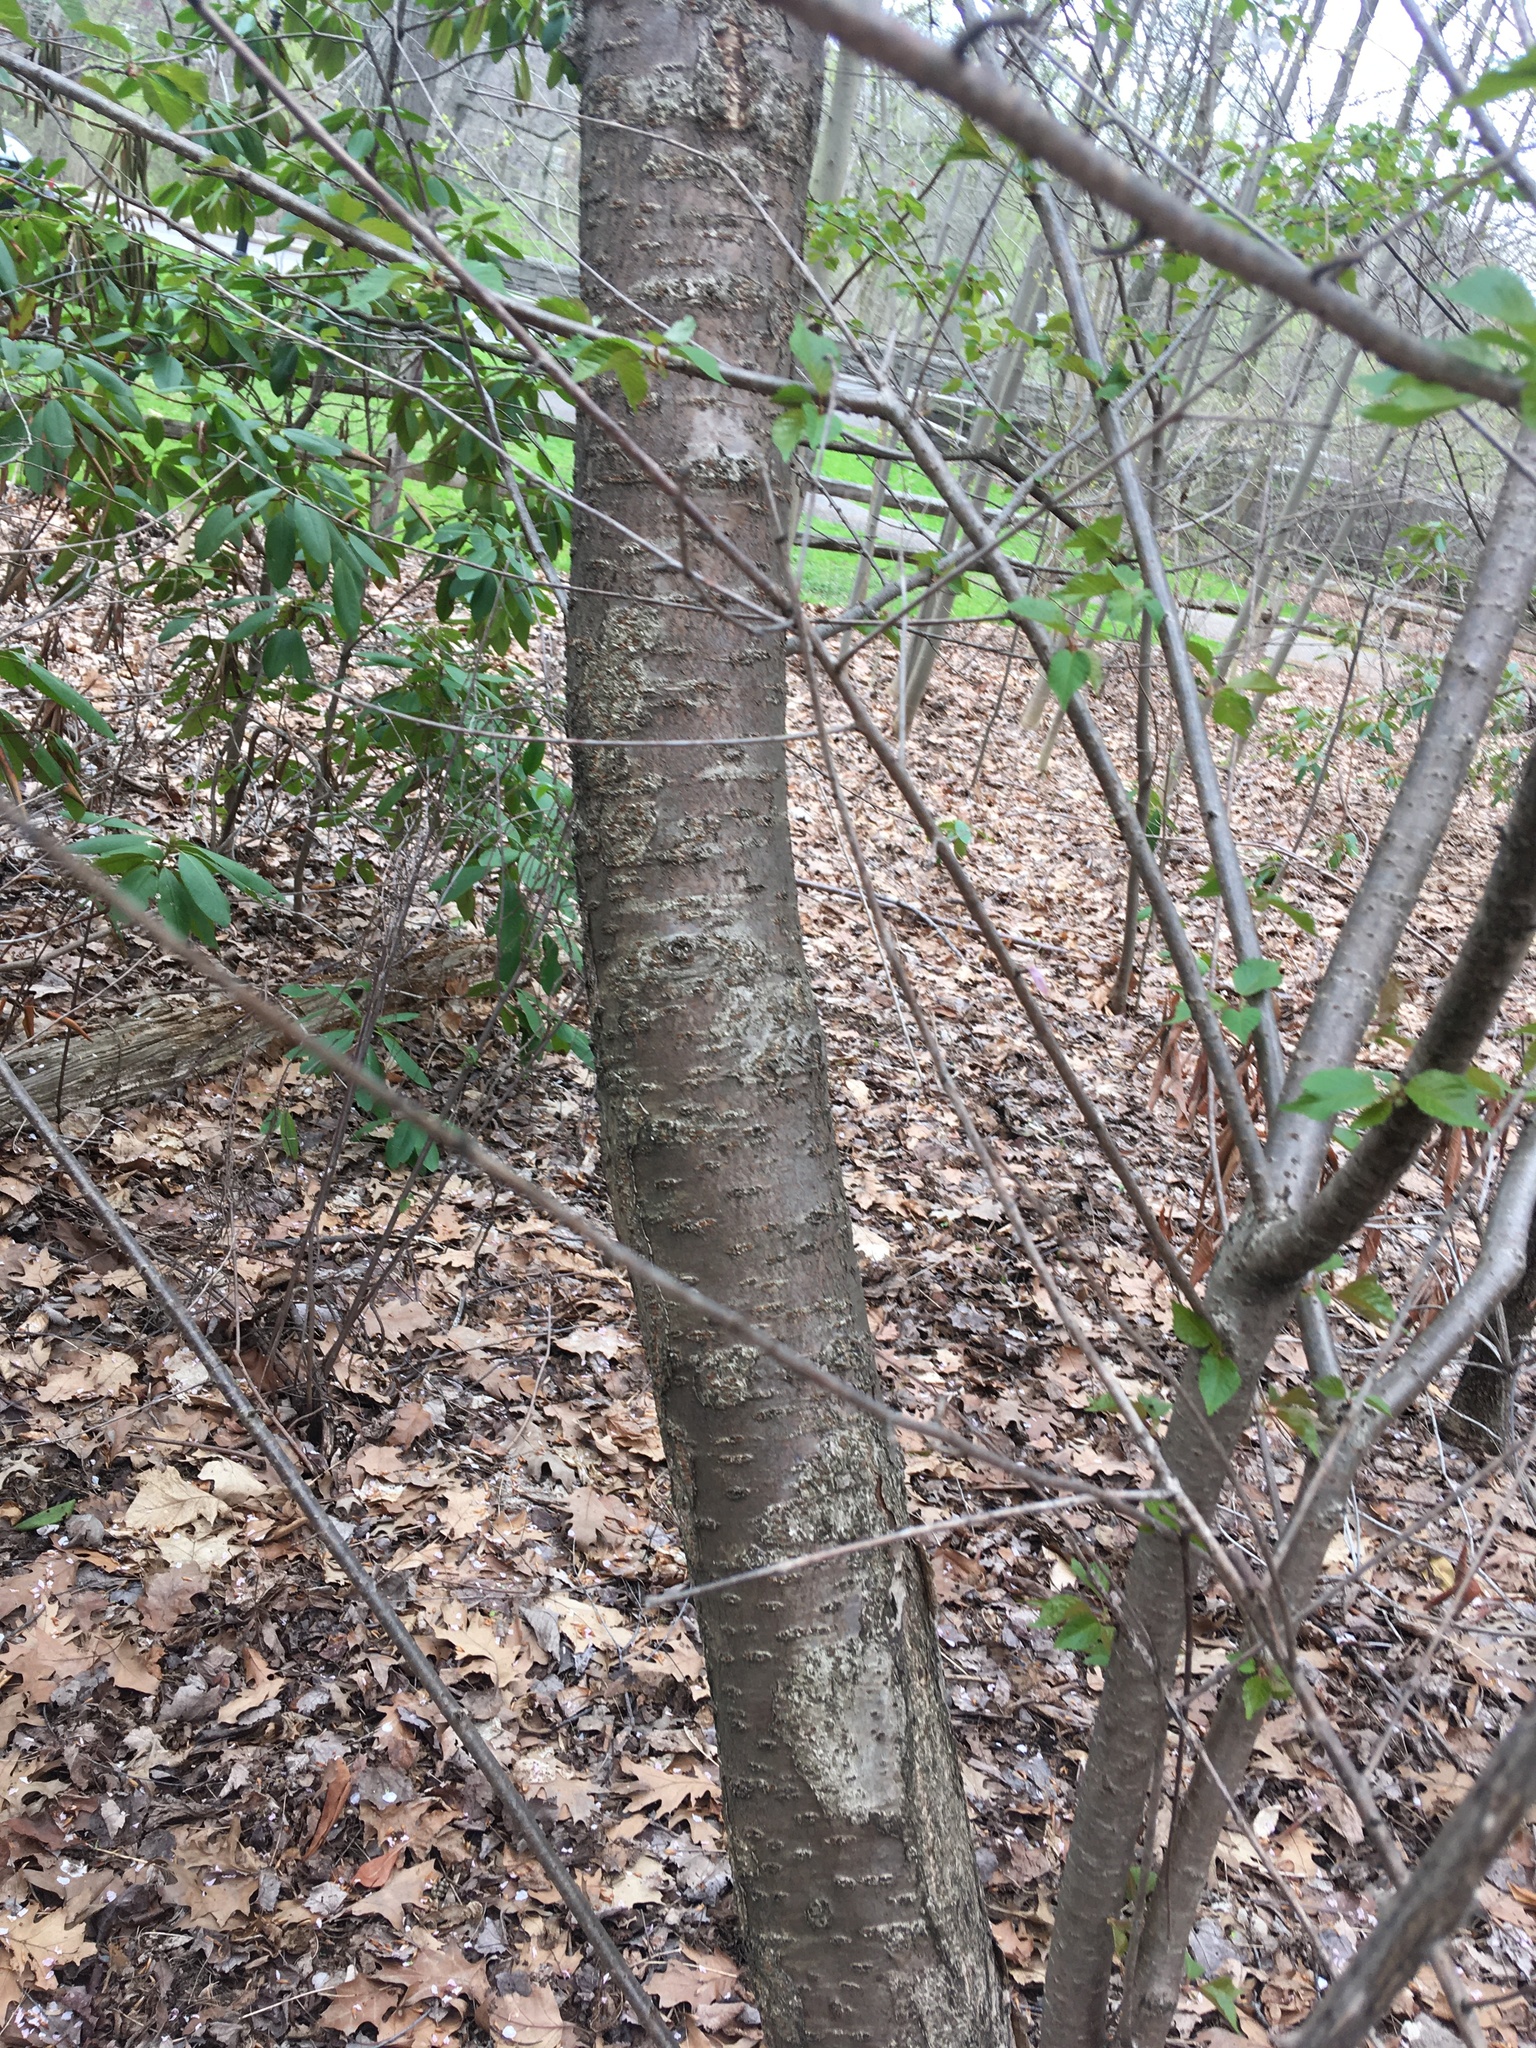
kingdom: Plantae
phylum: Tracheophyta
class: Magnoliopsida
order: Rosales
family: Rosaceae
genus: Prunus
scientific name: Prunus avium
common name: Sweet cherry
